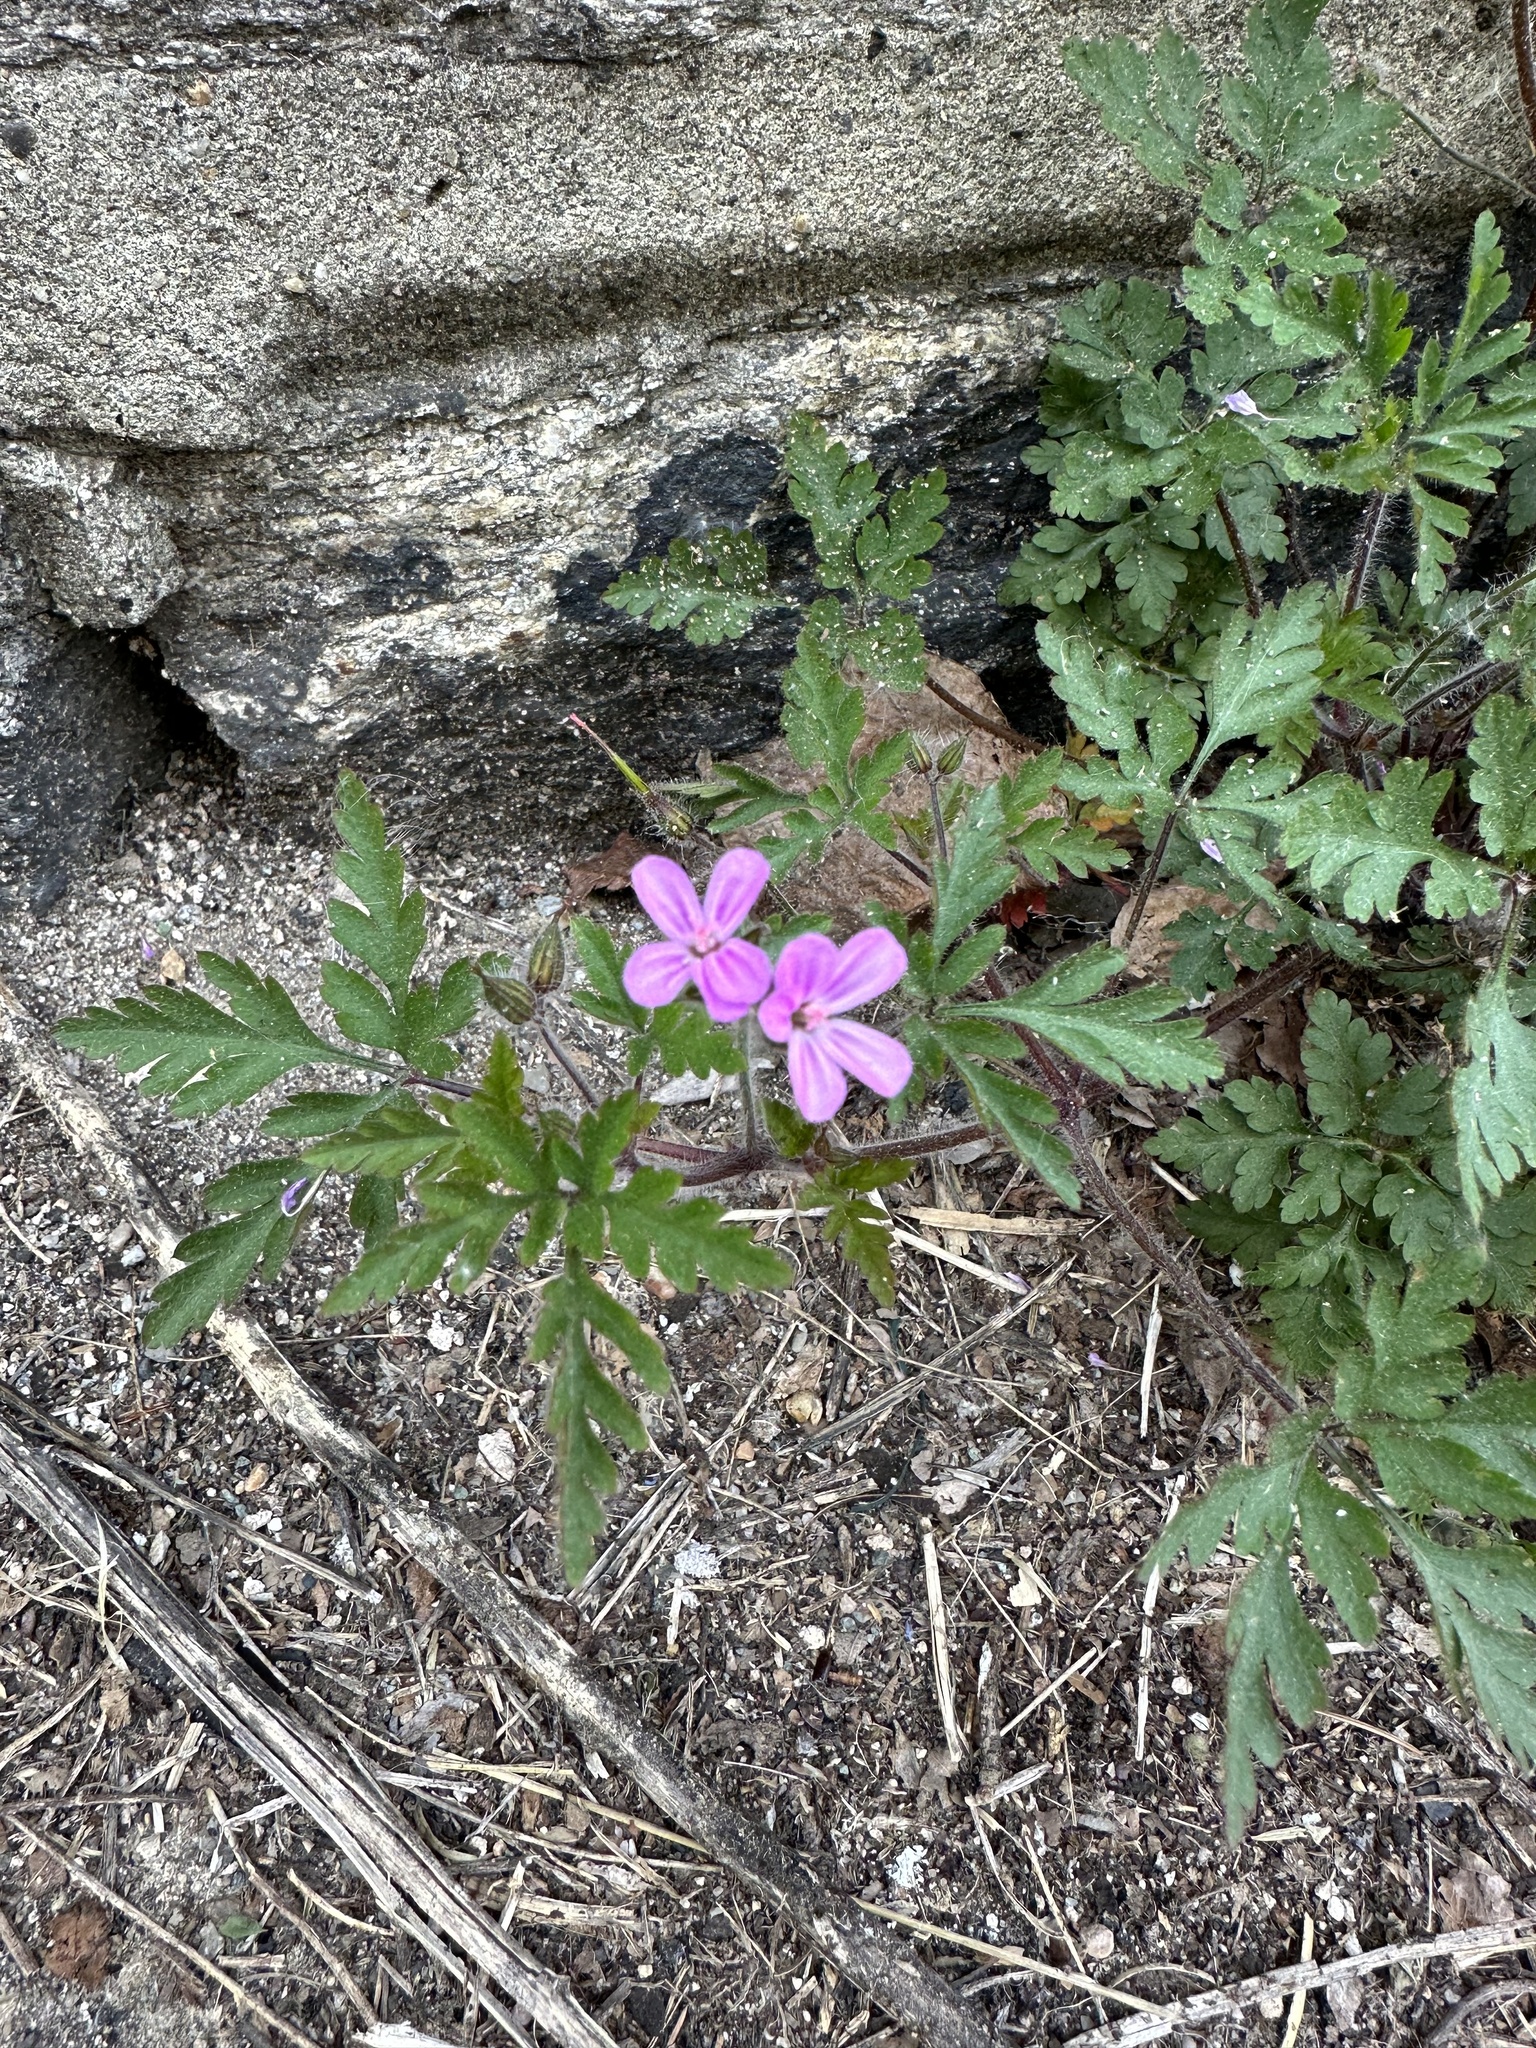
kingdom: Plantae
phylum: Tracheophyta
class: Magnoliopsida
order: Geraniales
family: Geraniaceae
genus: Geranium
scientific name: Geranium robertianum
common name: Herb-robert
